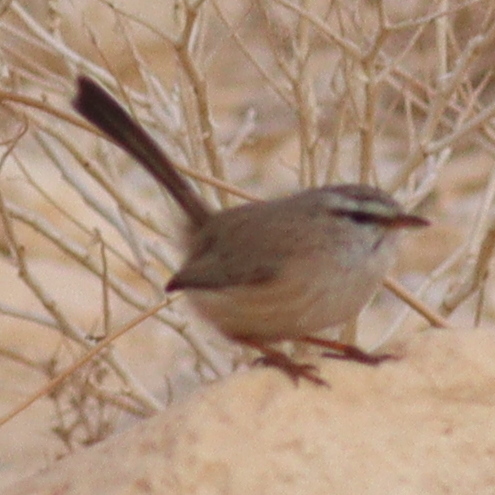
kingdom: Animalia
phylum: Chordata
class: Aves
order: Passeriformes
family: Scotocercidae
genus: Scotocerca
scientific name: Scotocerca inquieta
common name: Scrub warbler
